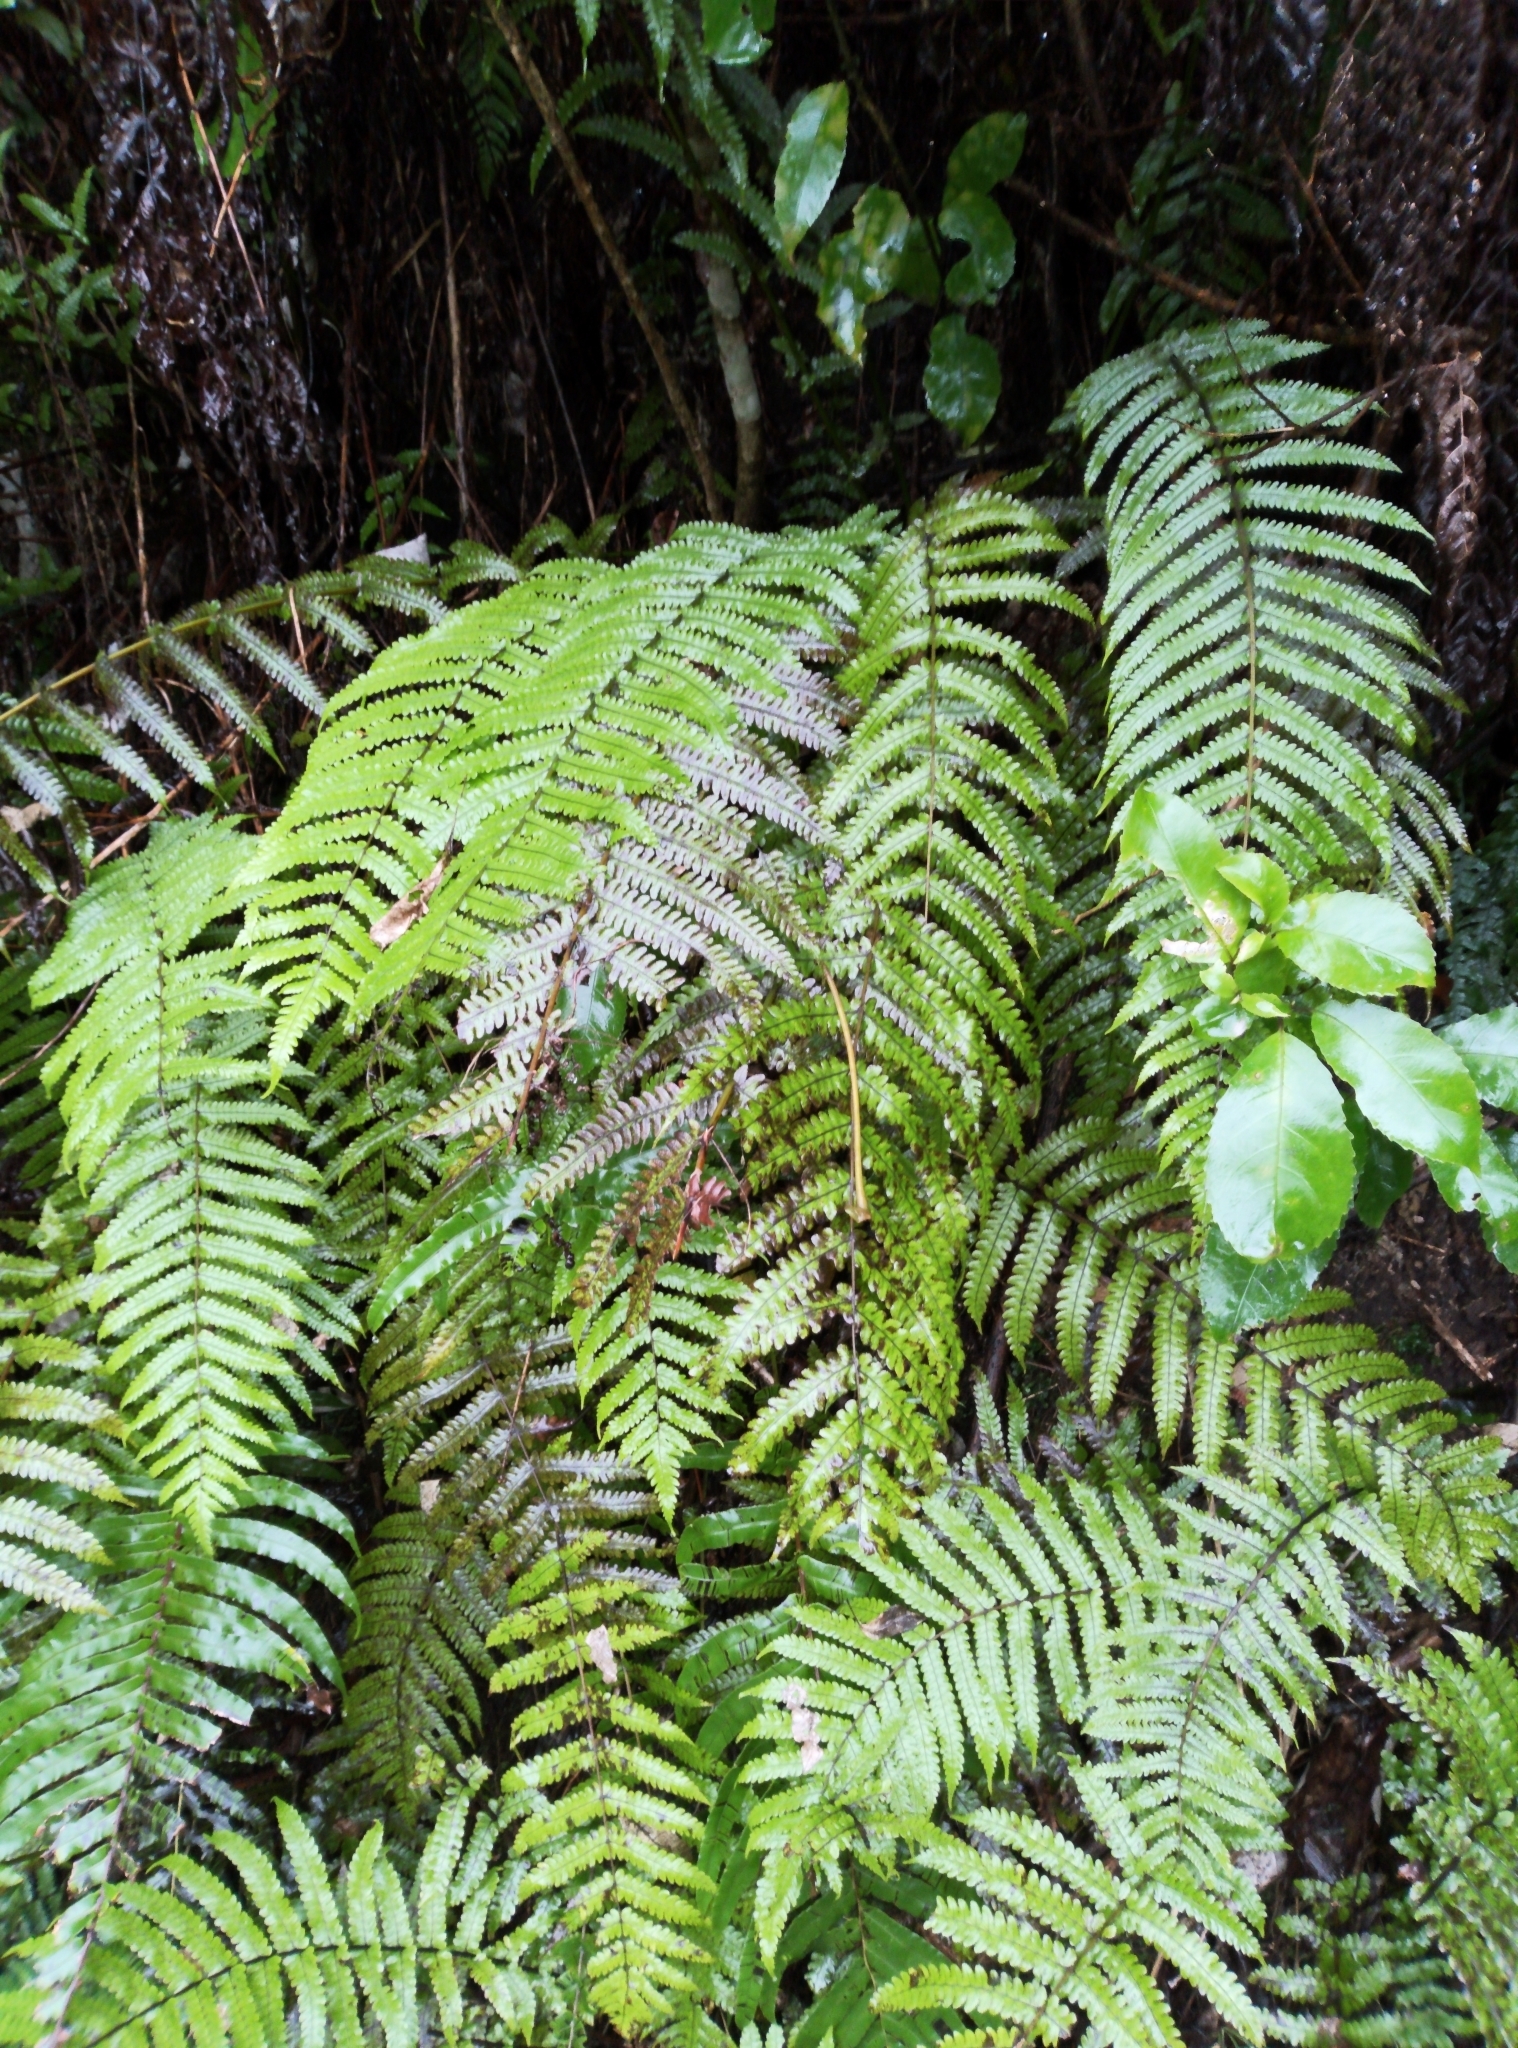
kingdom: Plantae
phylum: Tracheophyta
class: Polypodiopsida
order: Polypodiales
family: Thelypteridaceae
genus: Pakau
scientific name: Pakau pennigera
